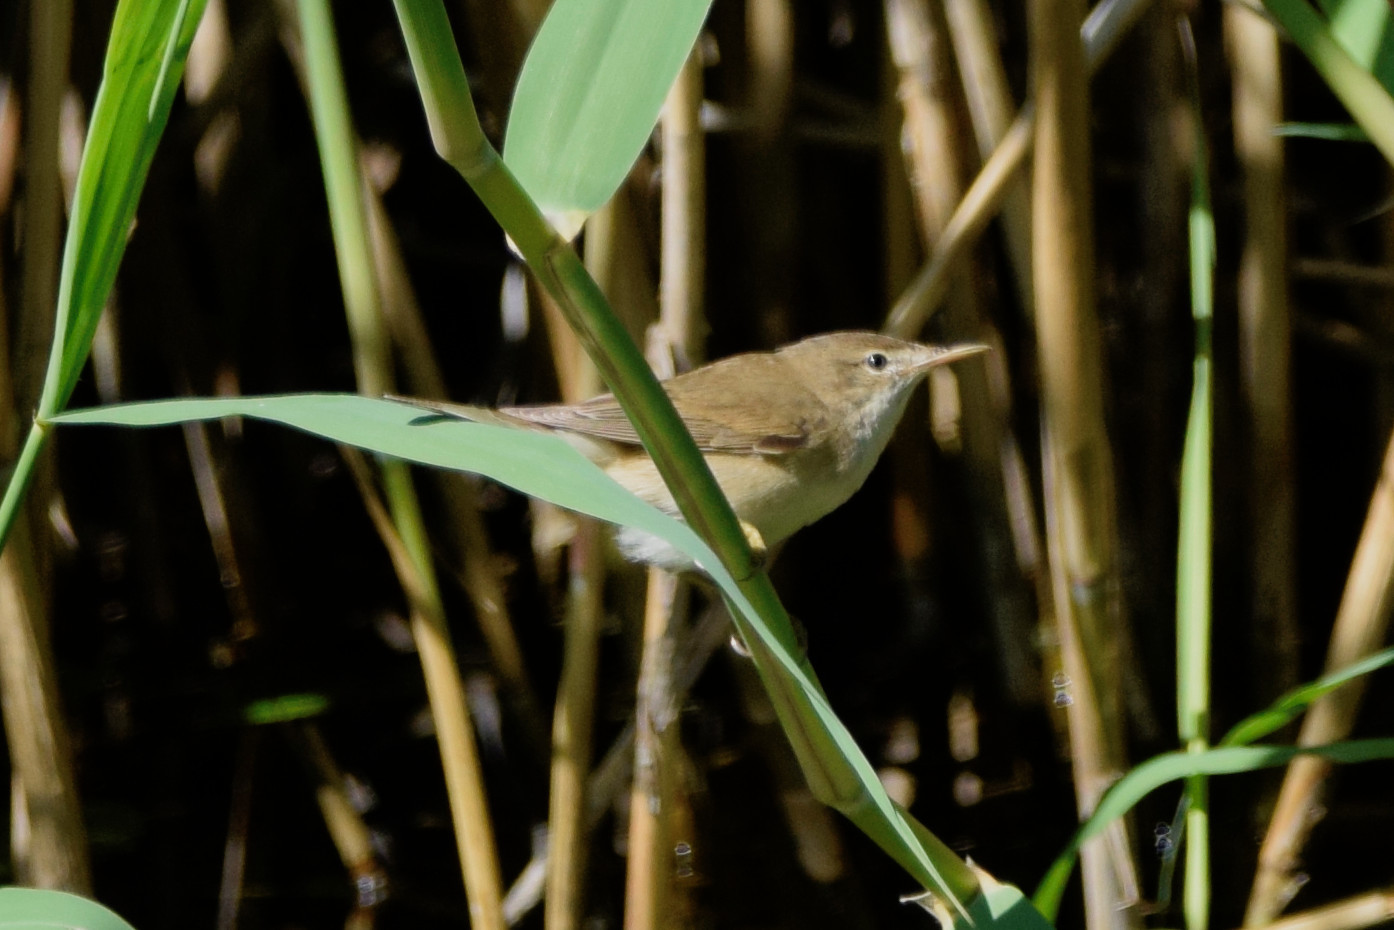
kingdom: Animalia
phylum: Chordata
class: Aves
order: Passeriformes
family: Acrocephalidae
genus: Acrocephalus
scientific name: Acrocephalus scirpaceus
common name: Eurasian reed warbler
